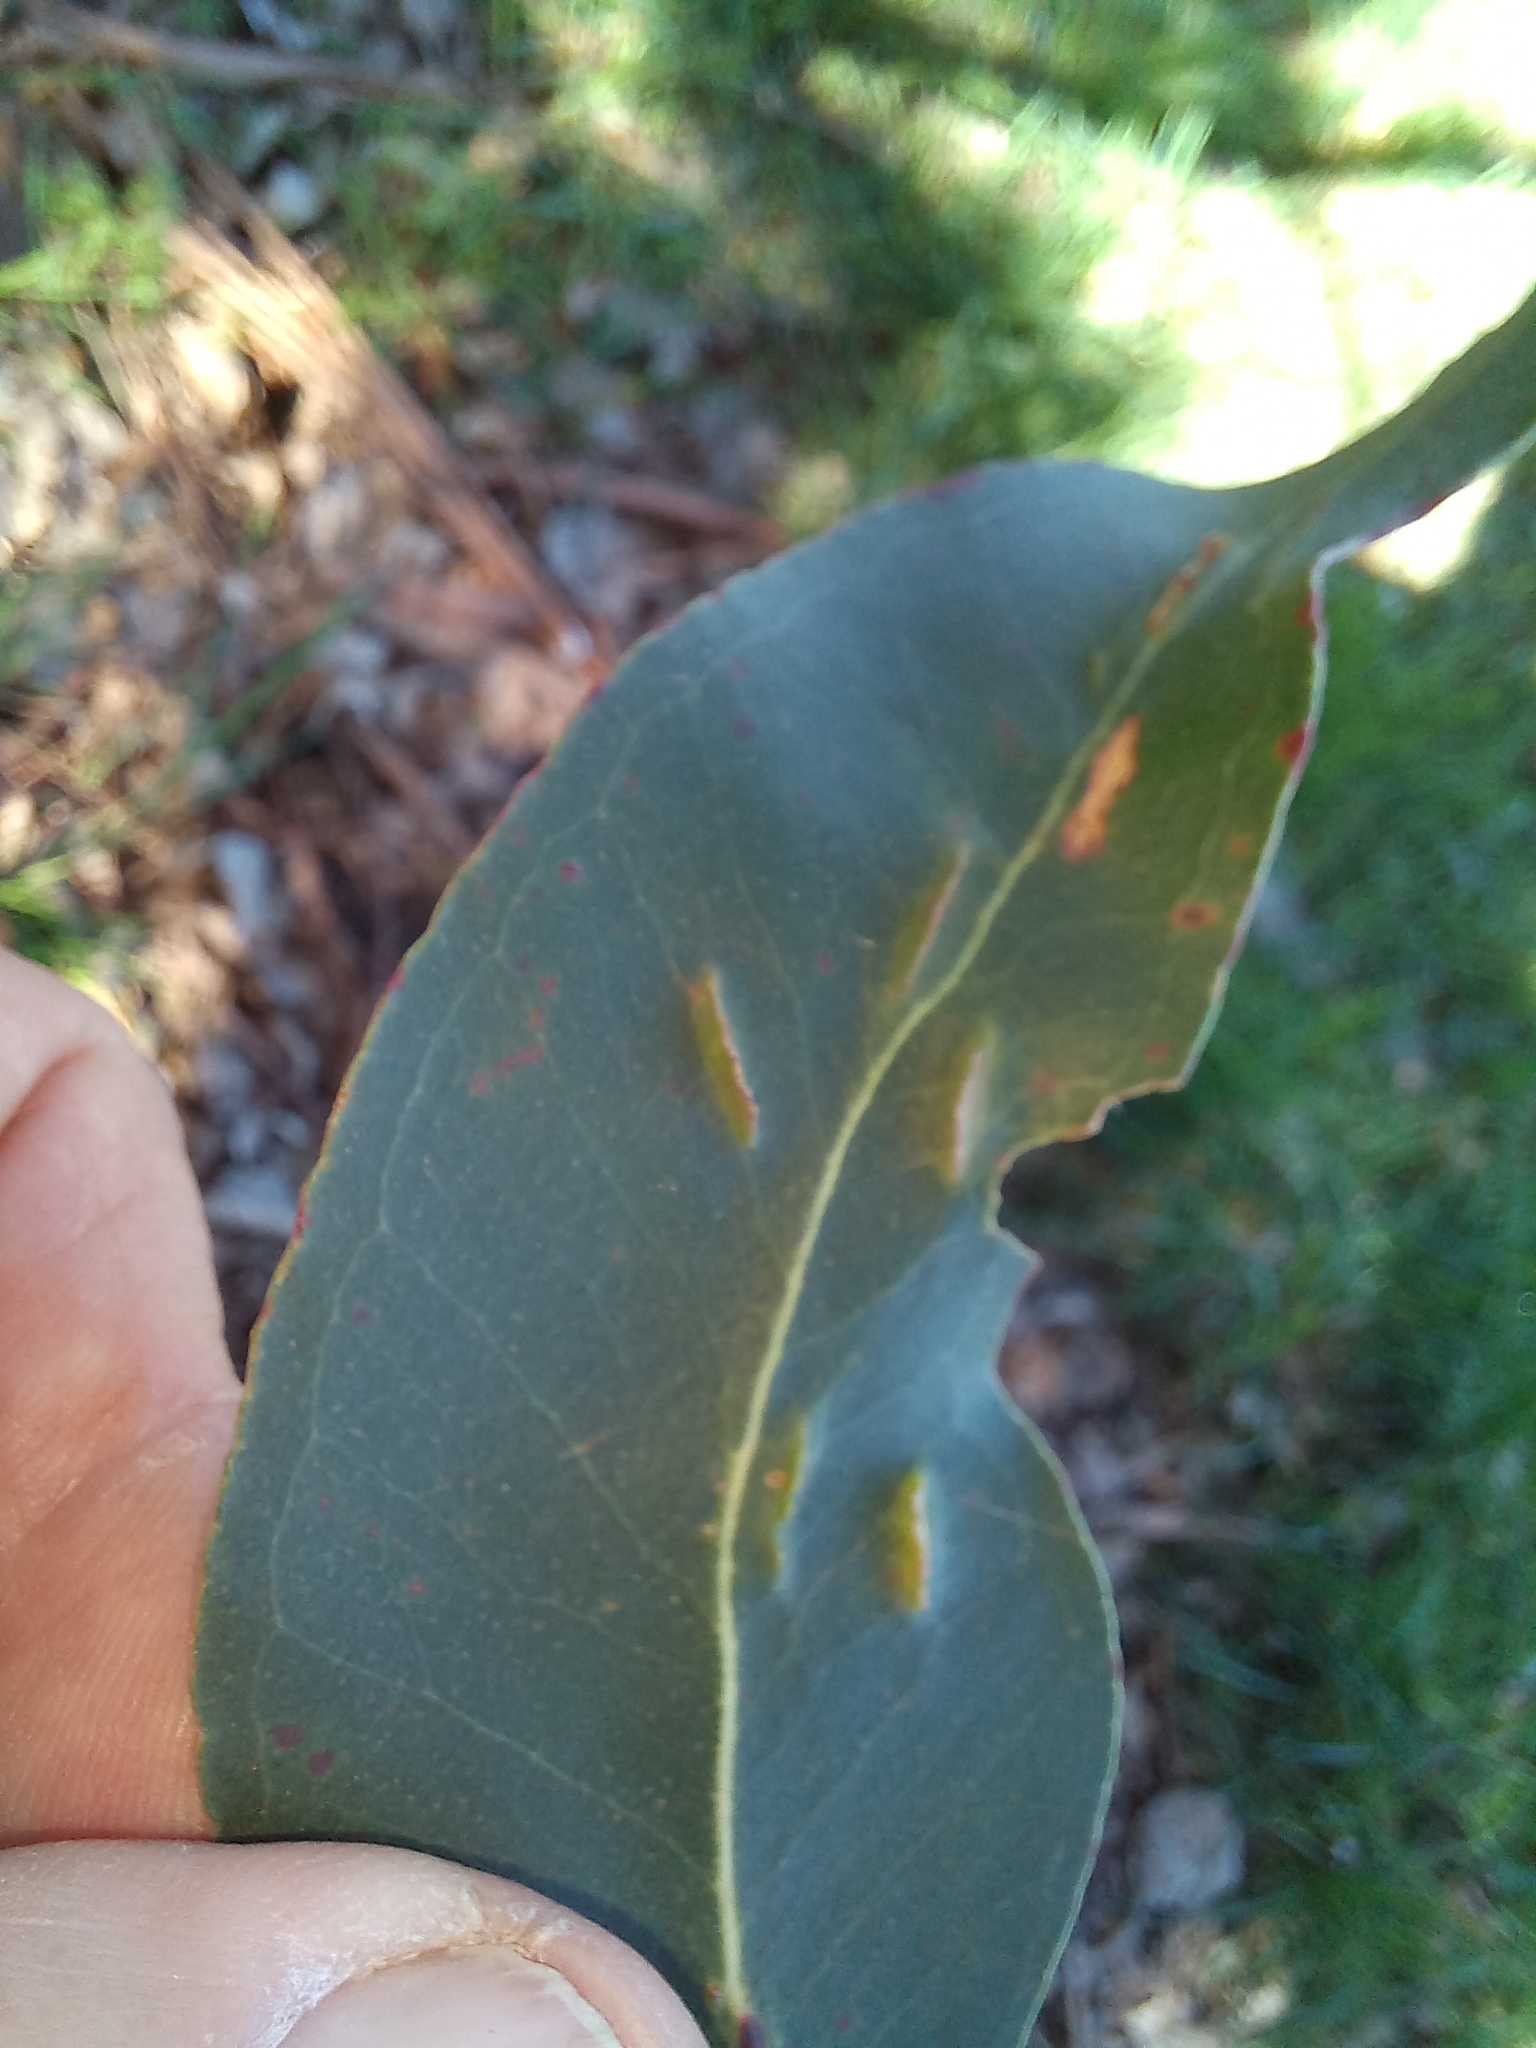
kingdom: Animalia
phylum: Arthropoda
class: Insecta
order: Hymenoptera
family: Pteromalidae
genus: Nambouria
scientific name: Nambouria xanthops
